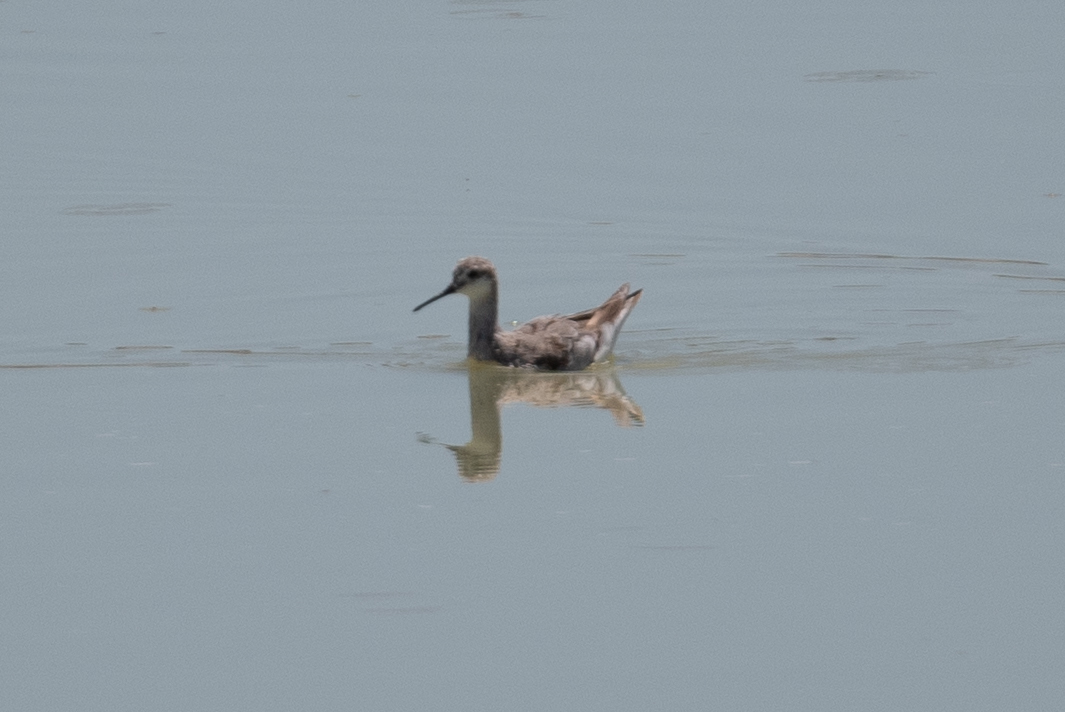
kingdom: Animalia
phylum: Chordata
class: Aves
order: Charadriiformes
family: Scolopacidae
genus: Phalaropus
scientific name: Phalaropus tricolor
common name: Wilson's phalarope
